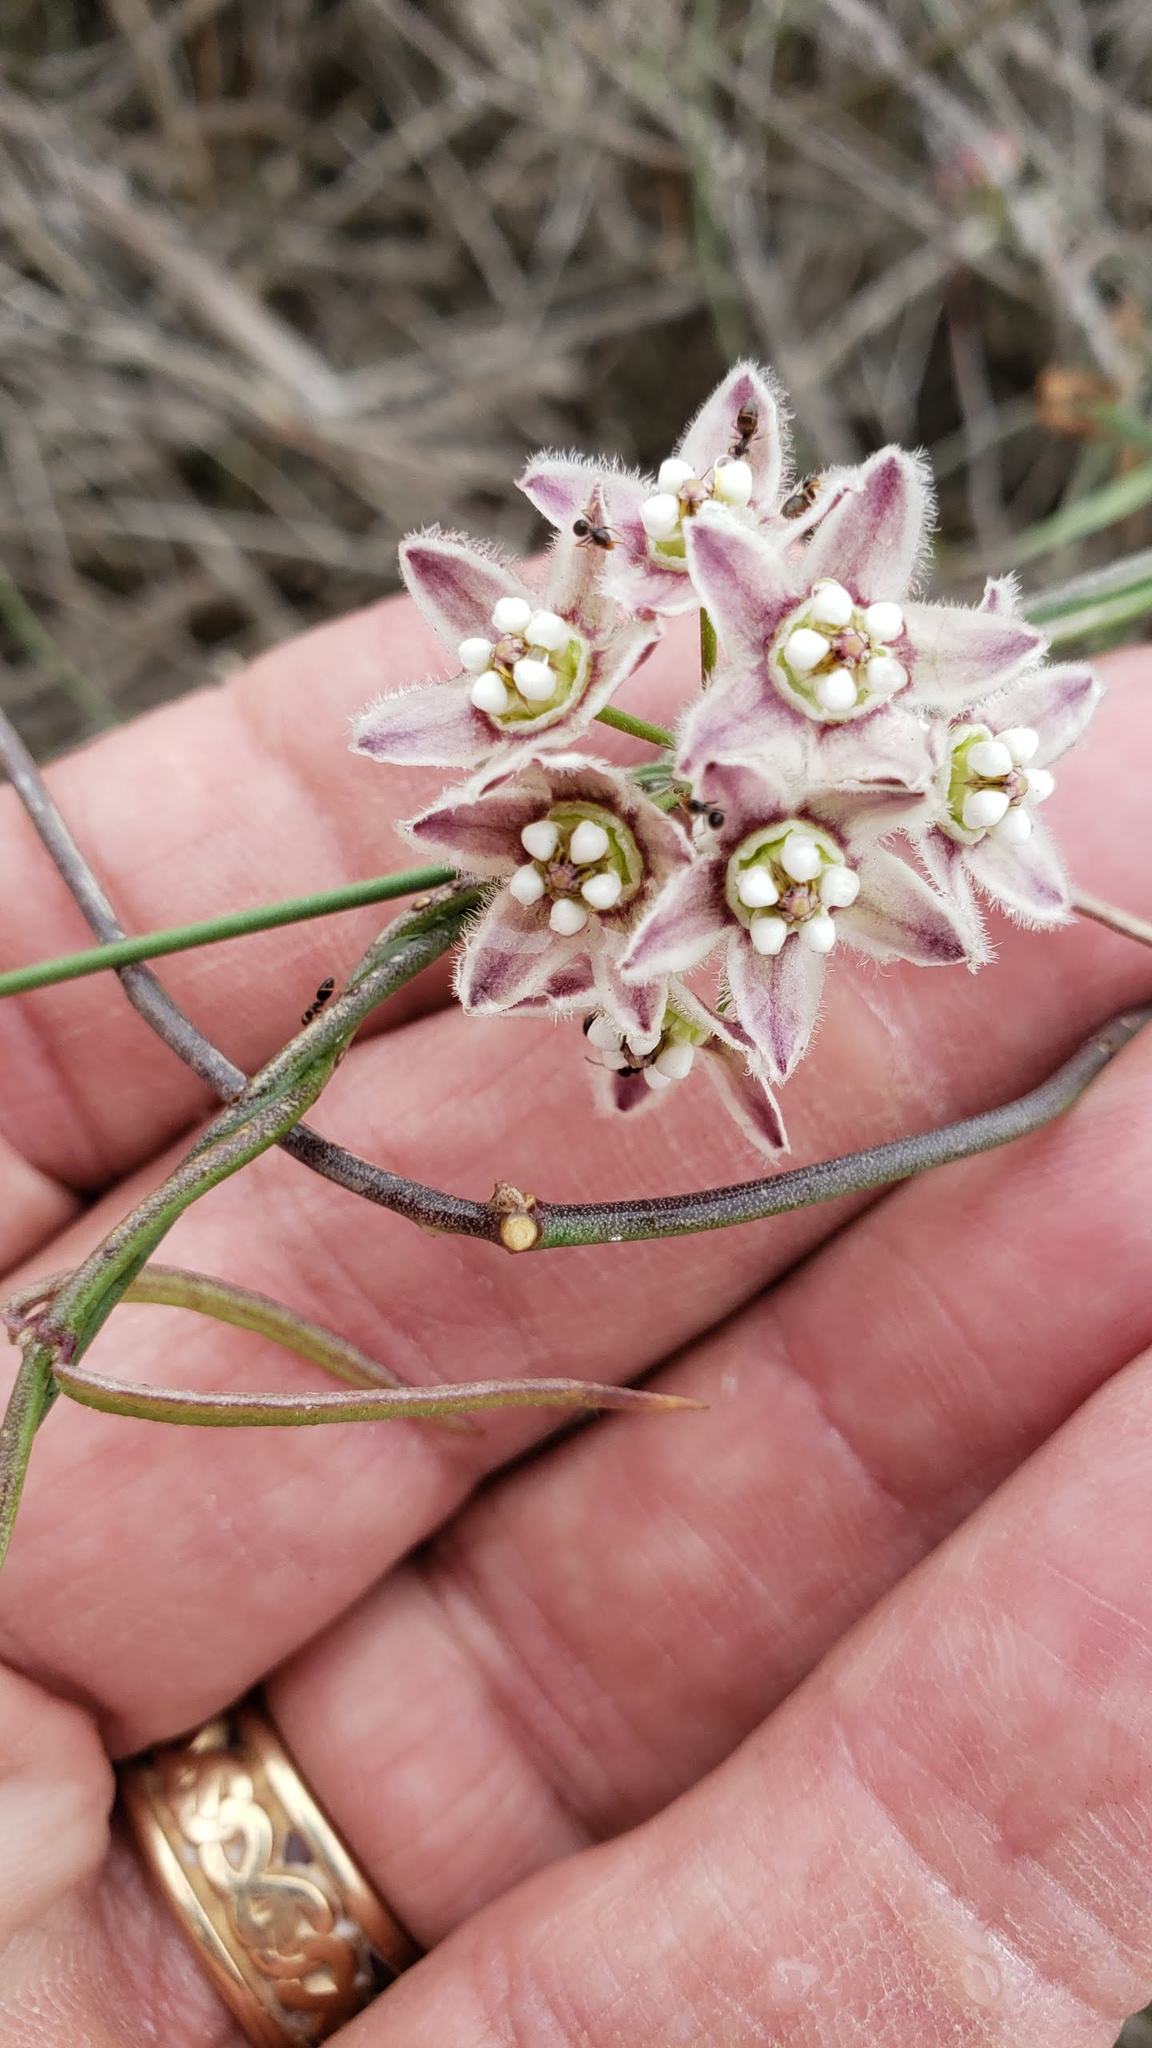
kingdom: Plantae
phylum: Tracheophyta
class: Magnoliopsida
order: Gentianales
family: Apocynaceae
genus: Funastrum
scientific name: Funastrum heterophyllum
